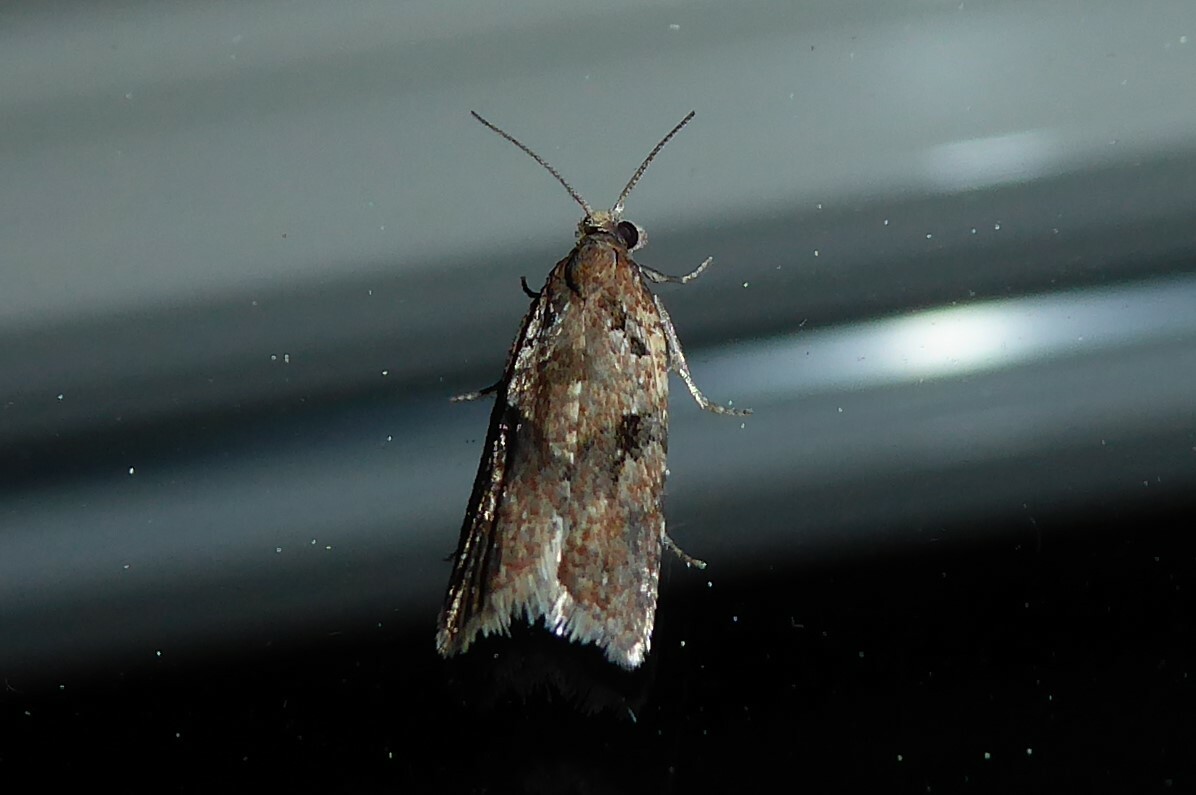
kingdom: Animalia
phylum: Arthropoda
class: Insecta
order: Lepidoptera
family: Tortricidae
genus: Capua
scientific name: Capua semiferana
